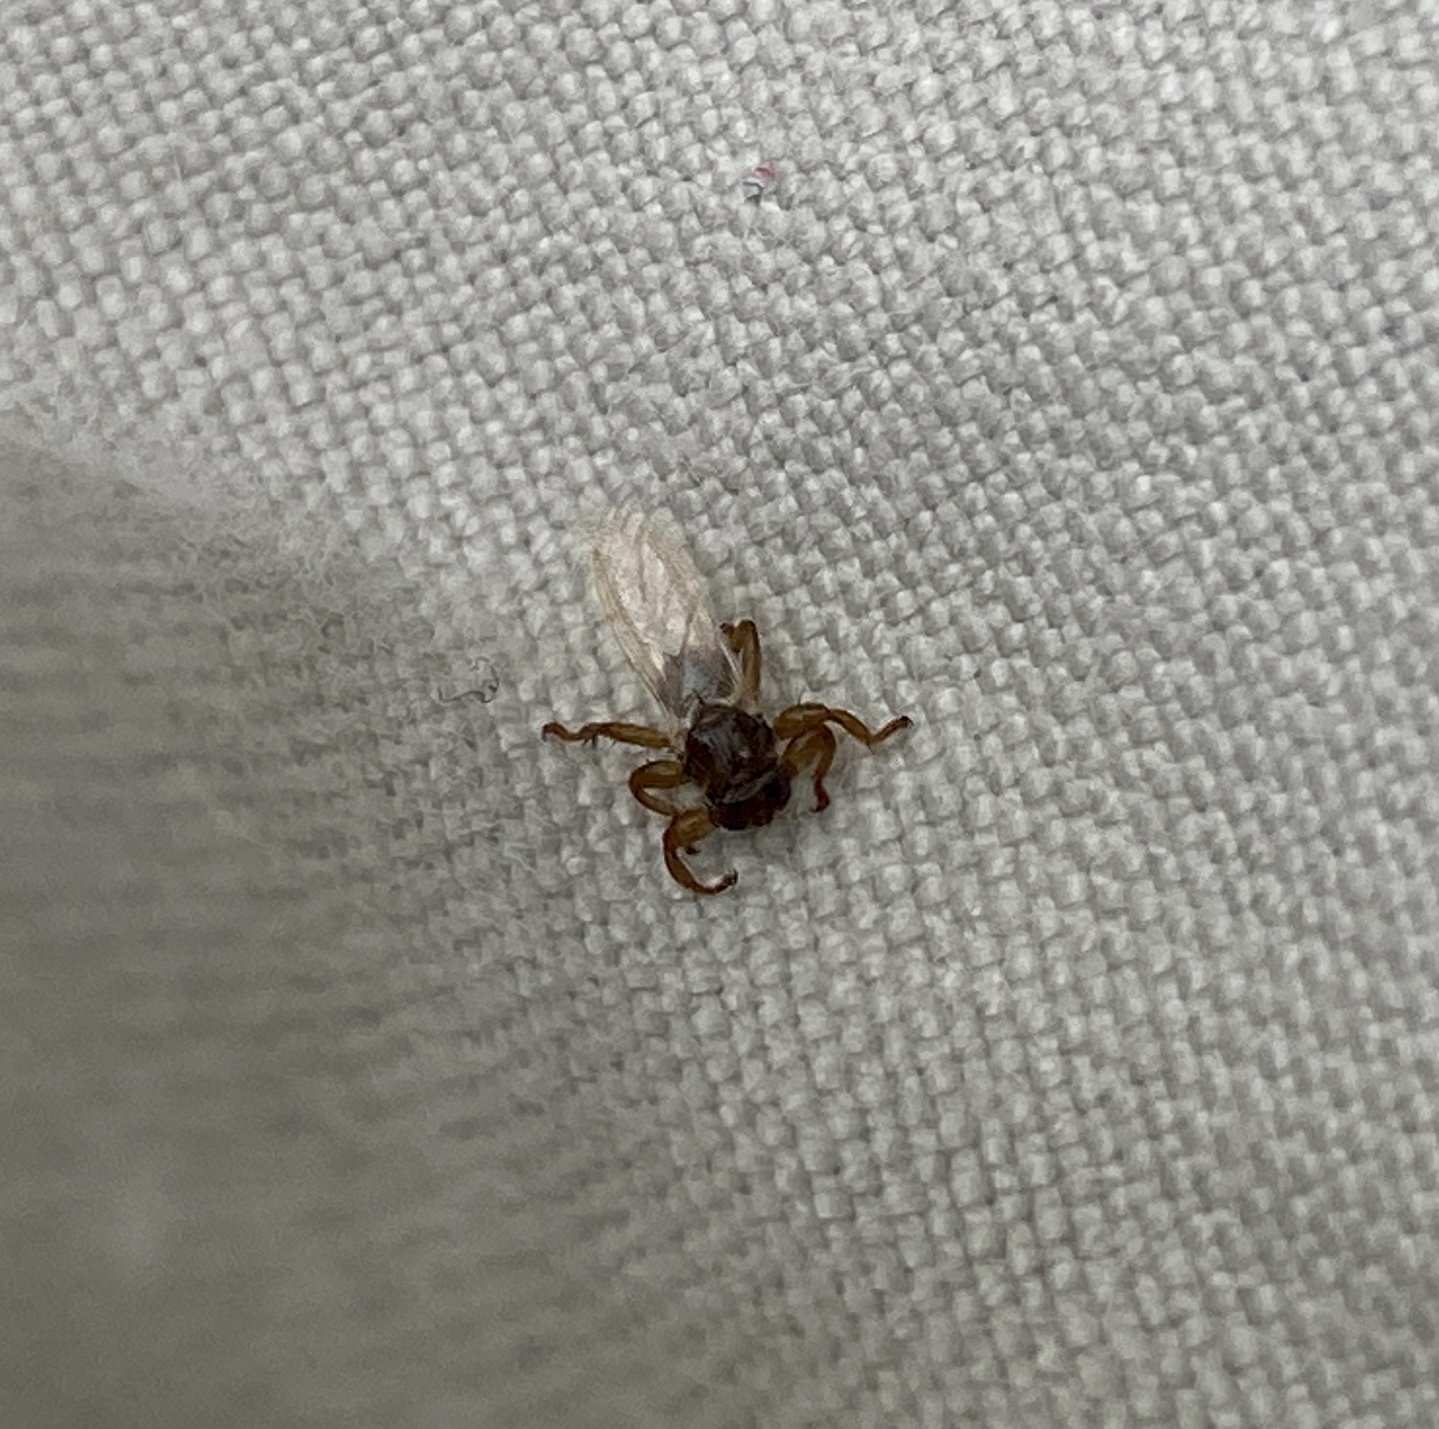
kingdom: Animalia
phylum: Arthropoda
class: Insecta
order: Diptera
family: Hippoboscidae
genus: Lipoptena
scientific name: Lipoptena cervi
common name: Deer ked
